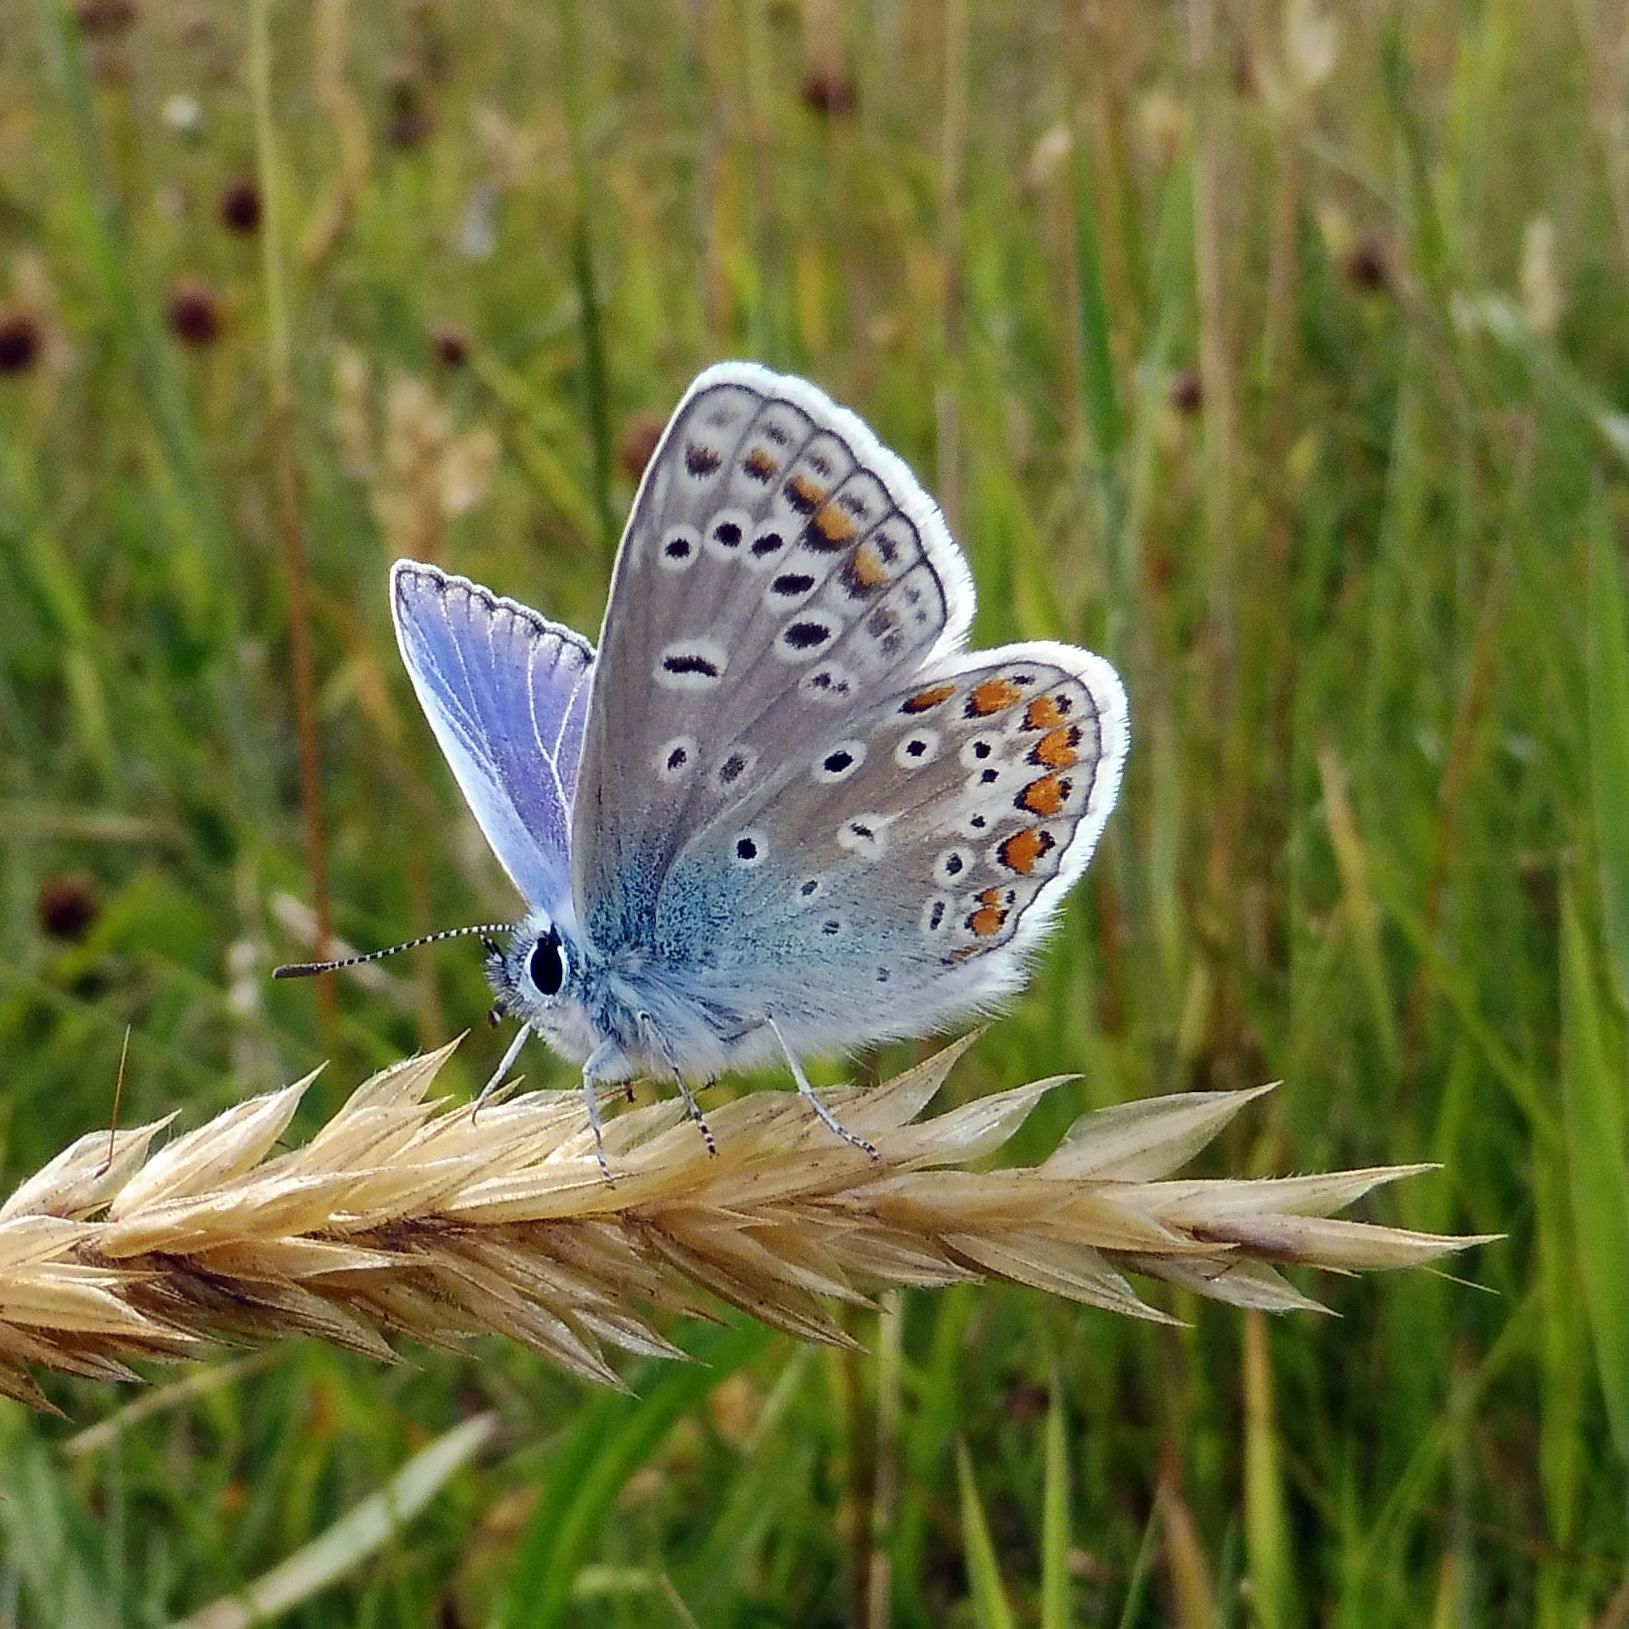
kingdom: Animalia
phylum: Arthropoda
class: Insecta
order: Lepidoptera
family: Lycaenidae
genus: Polyommatus
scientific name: Polyommatus icarus
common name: Common blue
